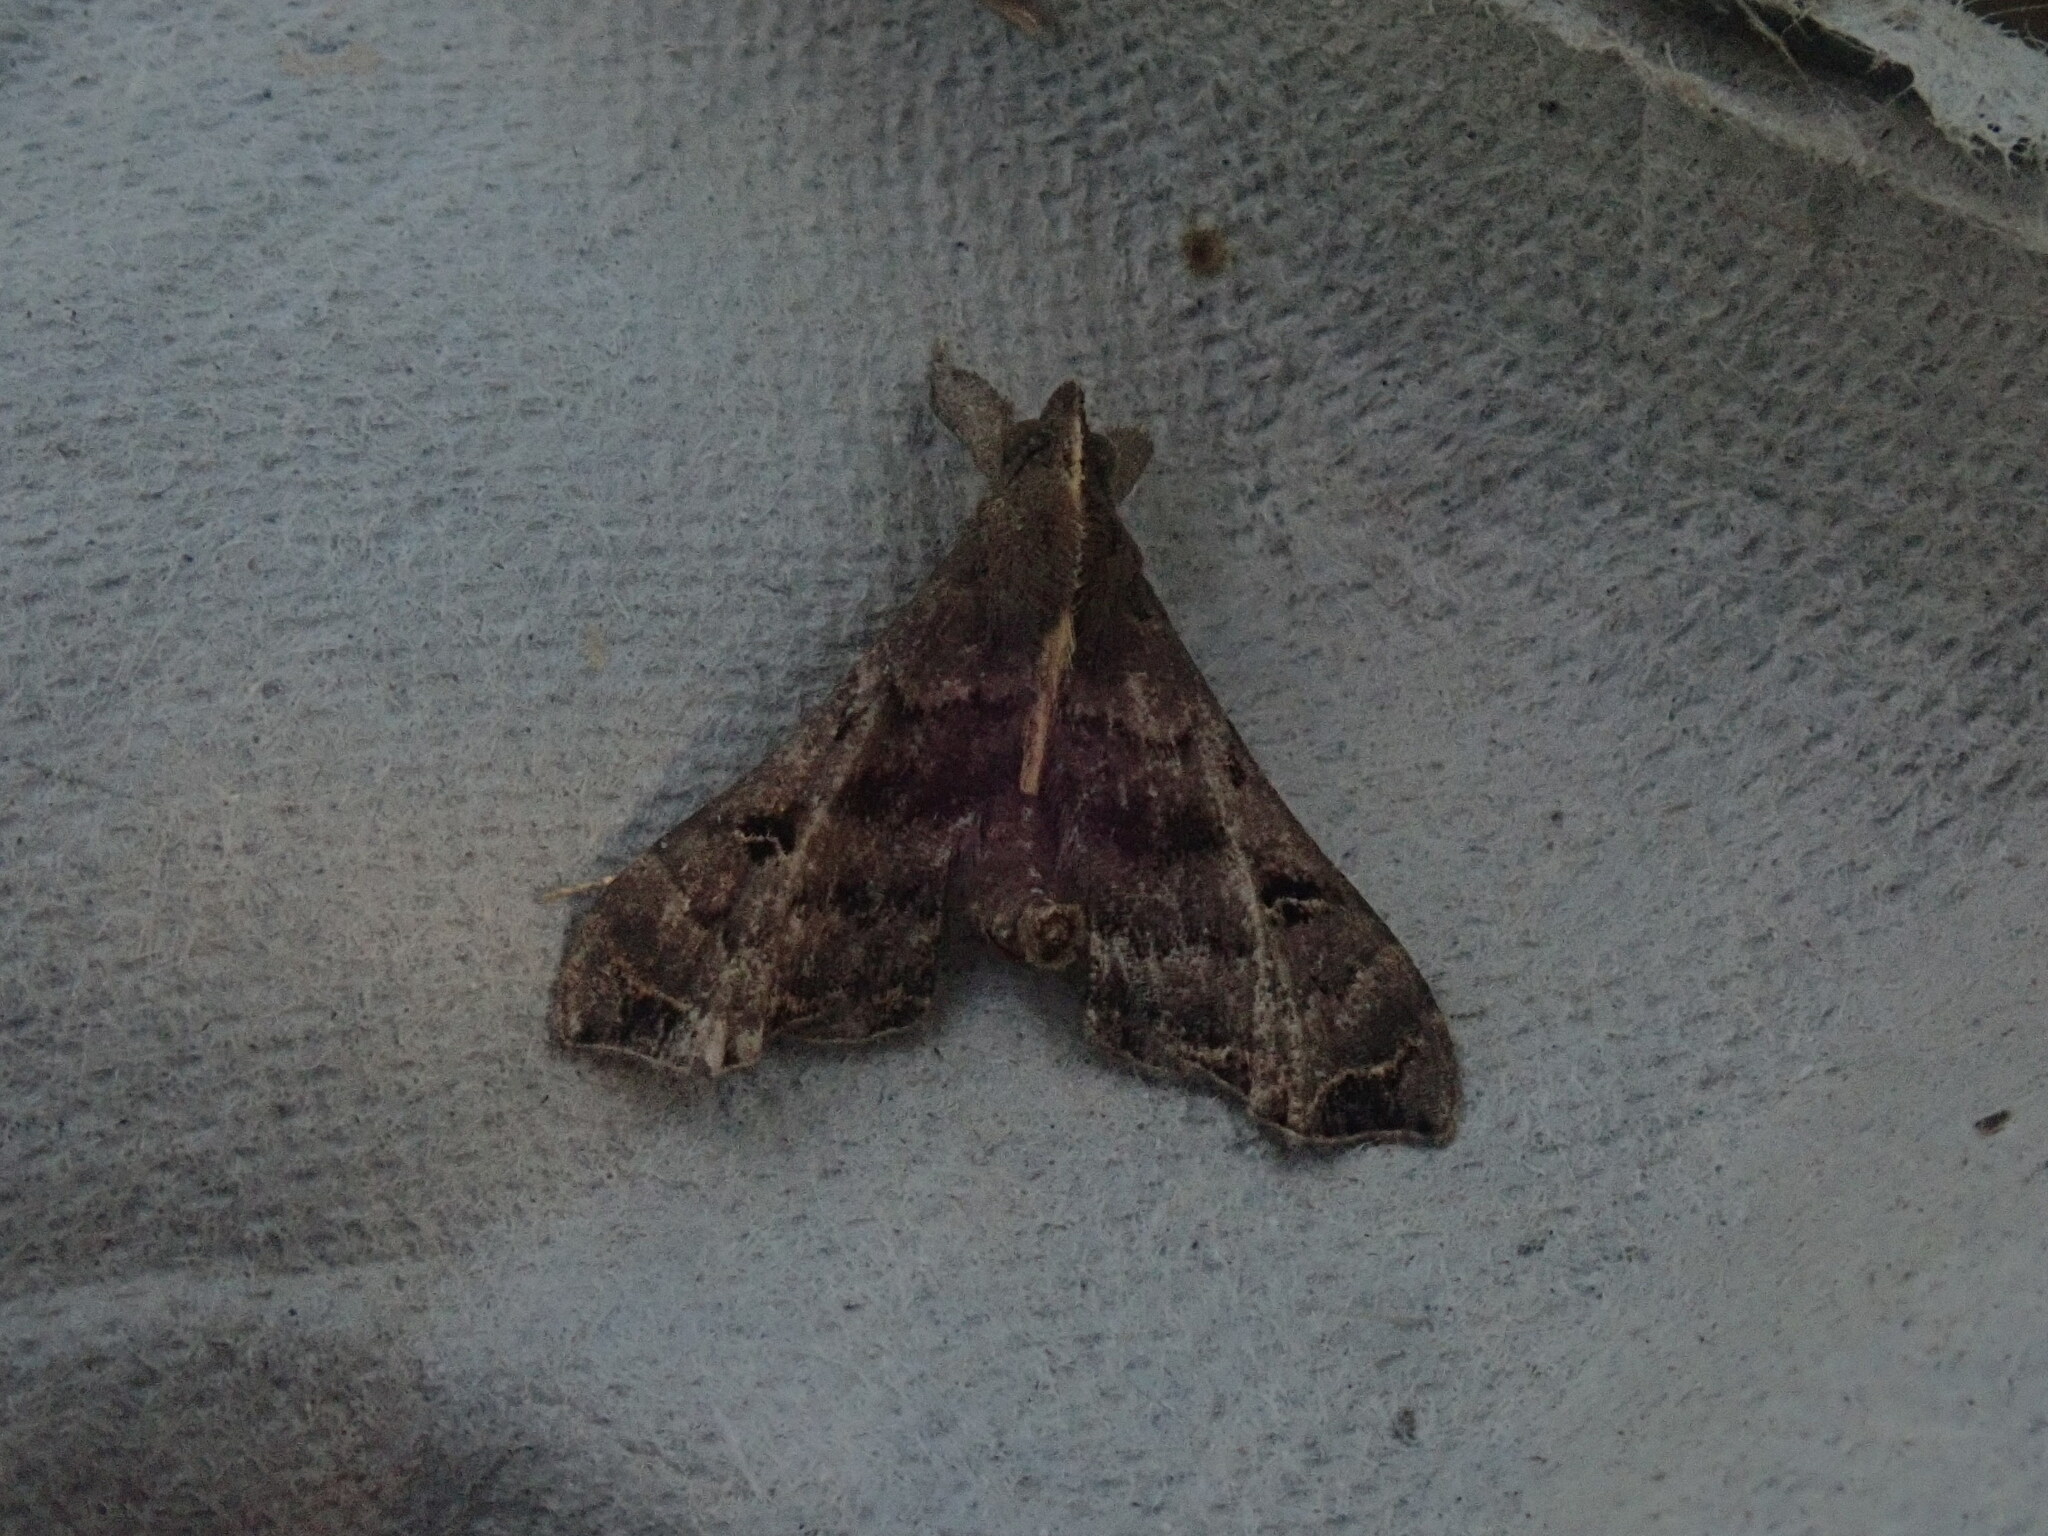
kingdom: Animalia
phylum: Arthropoda
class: Insecta
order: Lepidoptera
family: Erebidae
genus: Palthis
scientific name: Palthis asopialis
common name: Faint-spotted palthis moth
